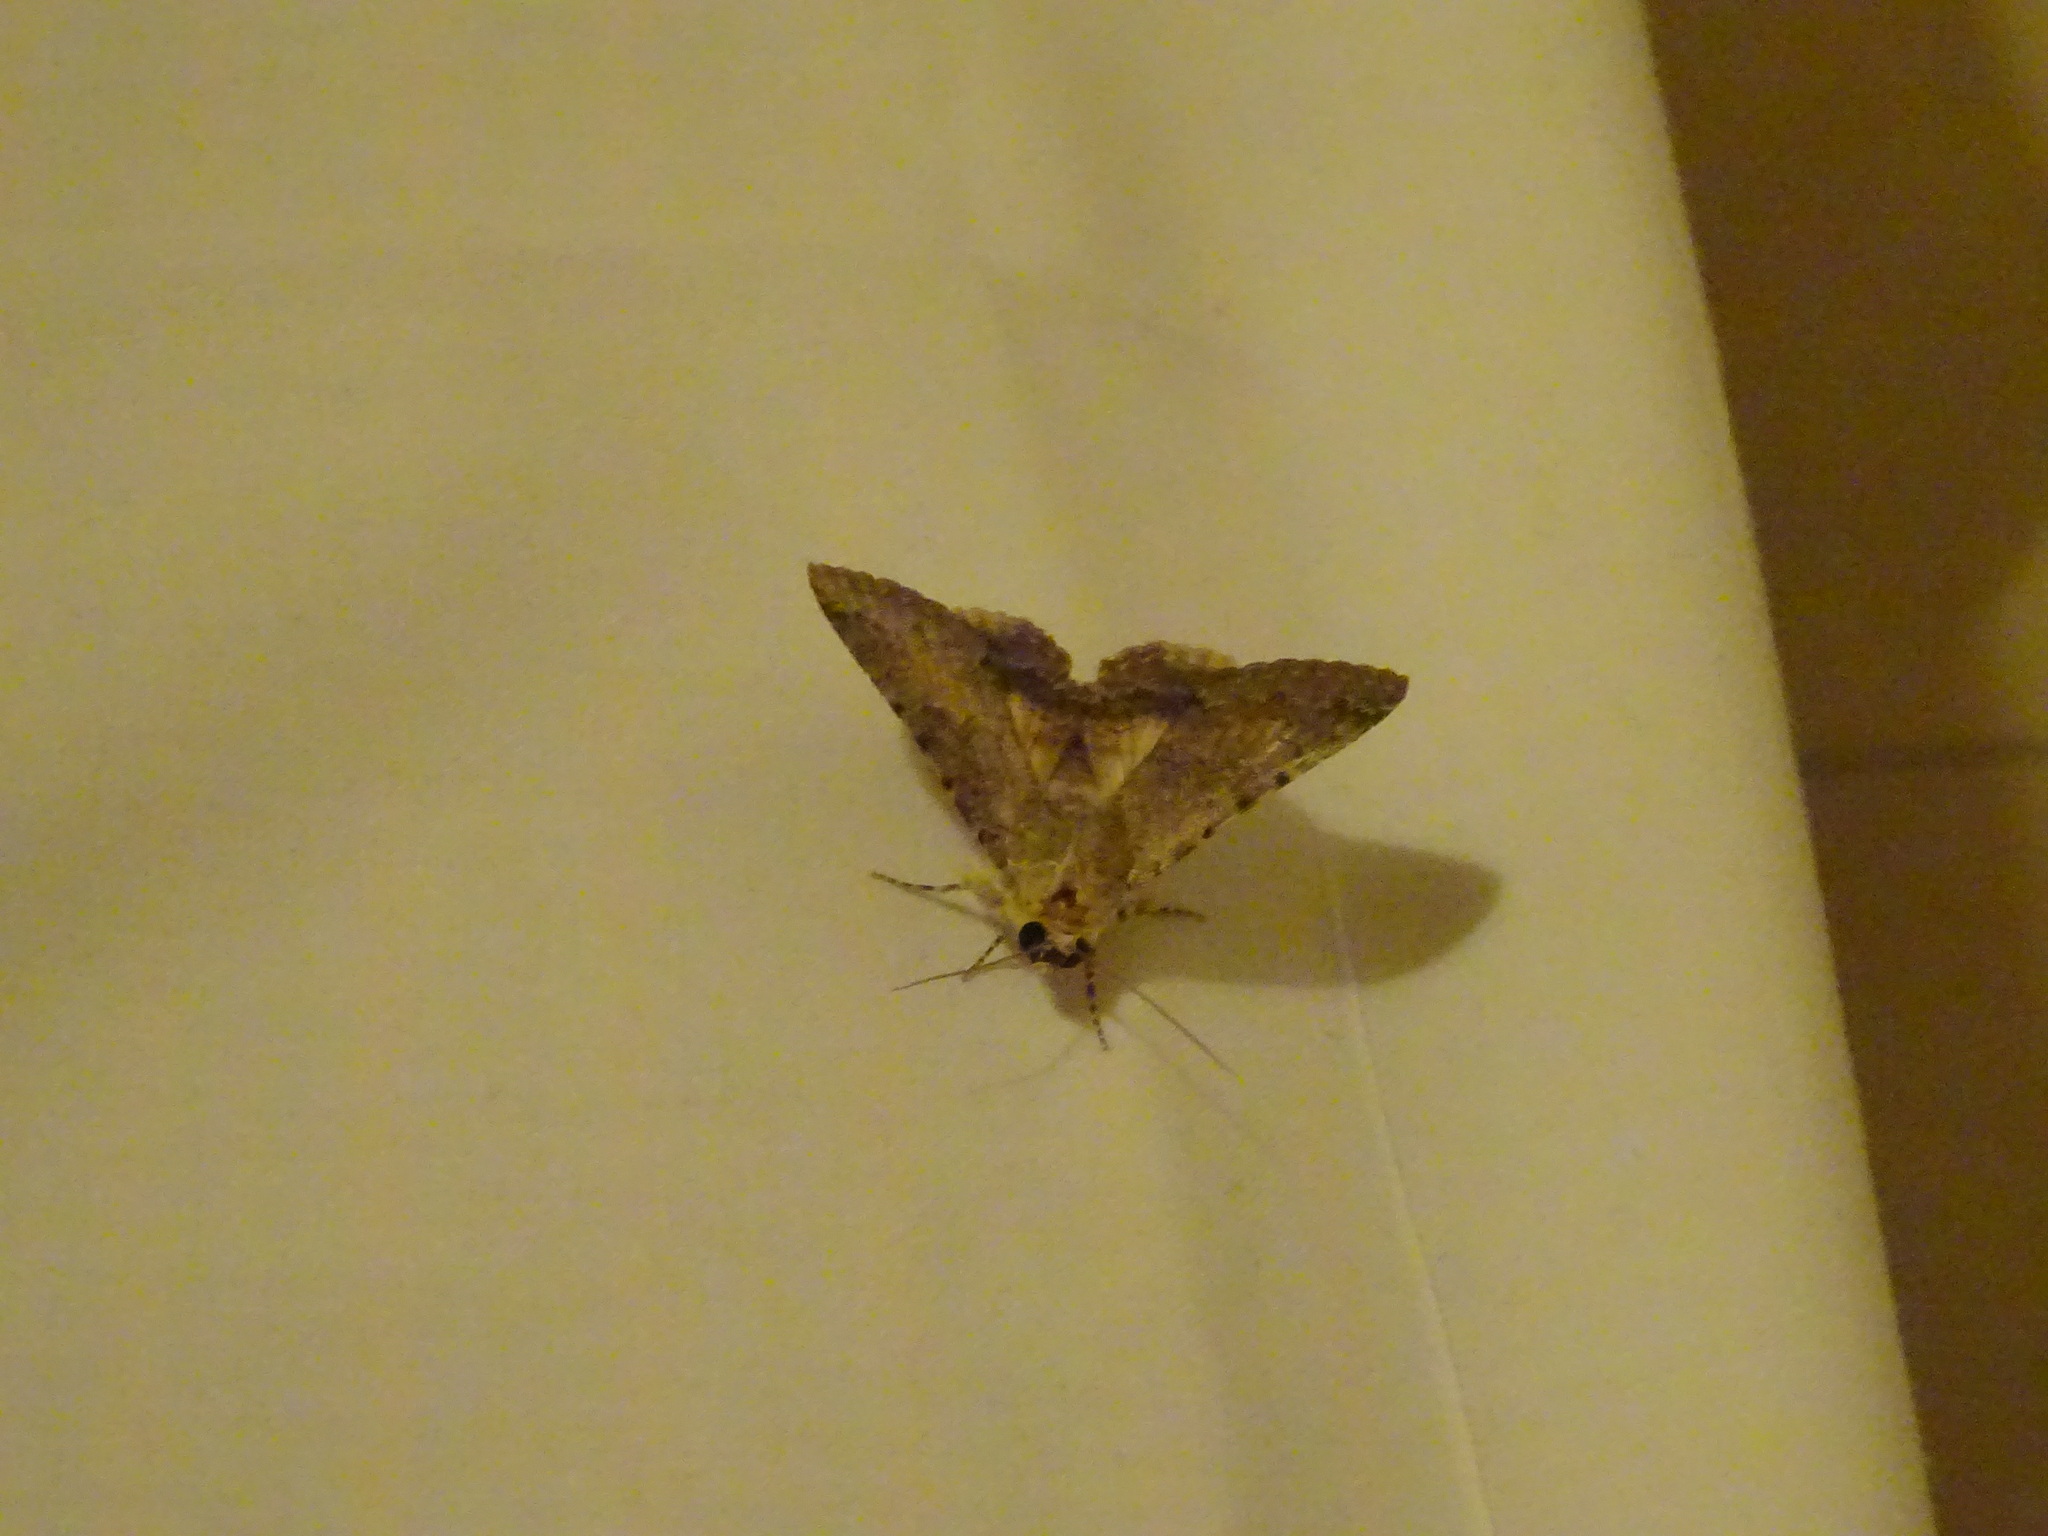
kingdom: Animalia
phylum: Arthropoda
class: Insecta
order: Lepidoptera
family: Erebidae
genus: Pandesma
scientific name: Pandesma robusta
